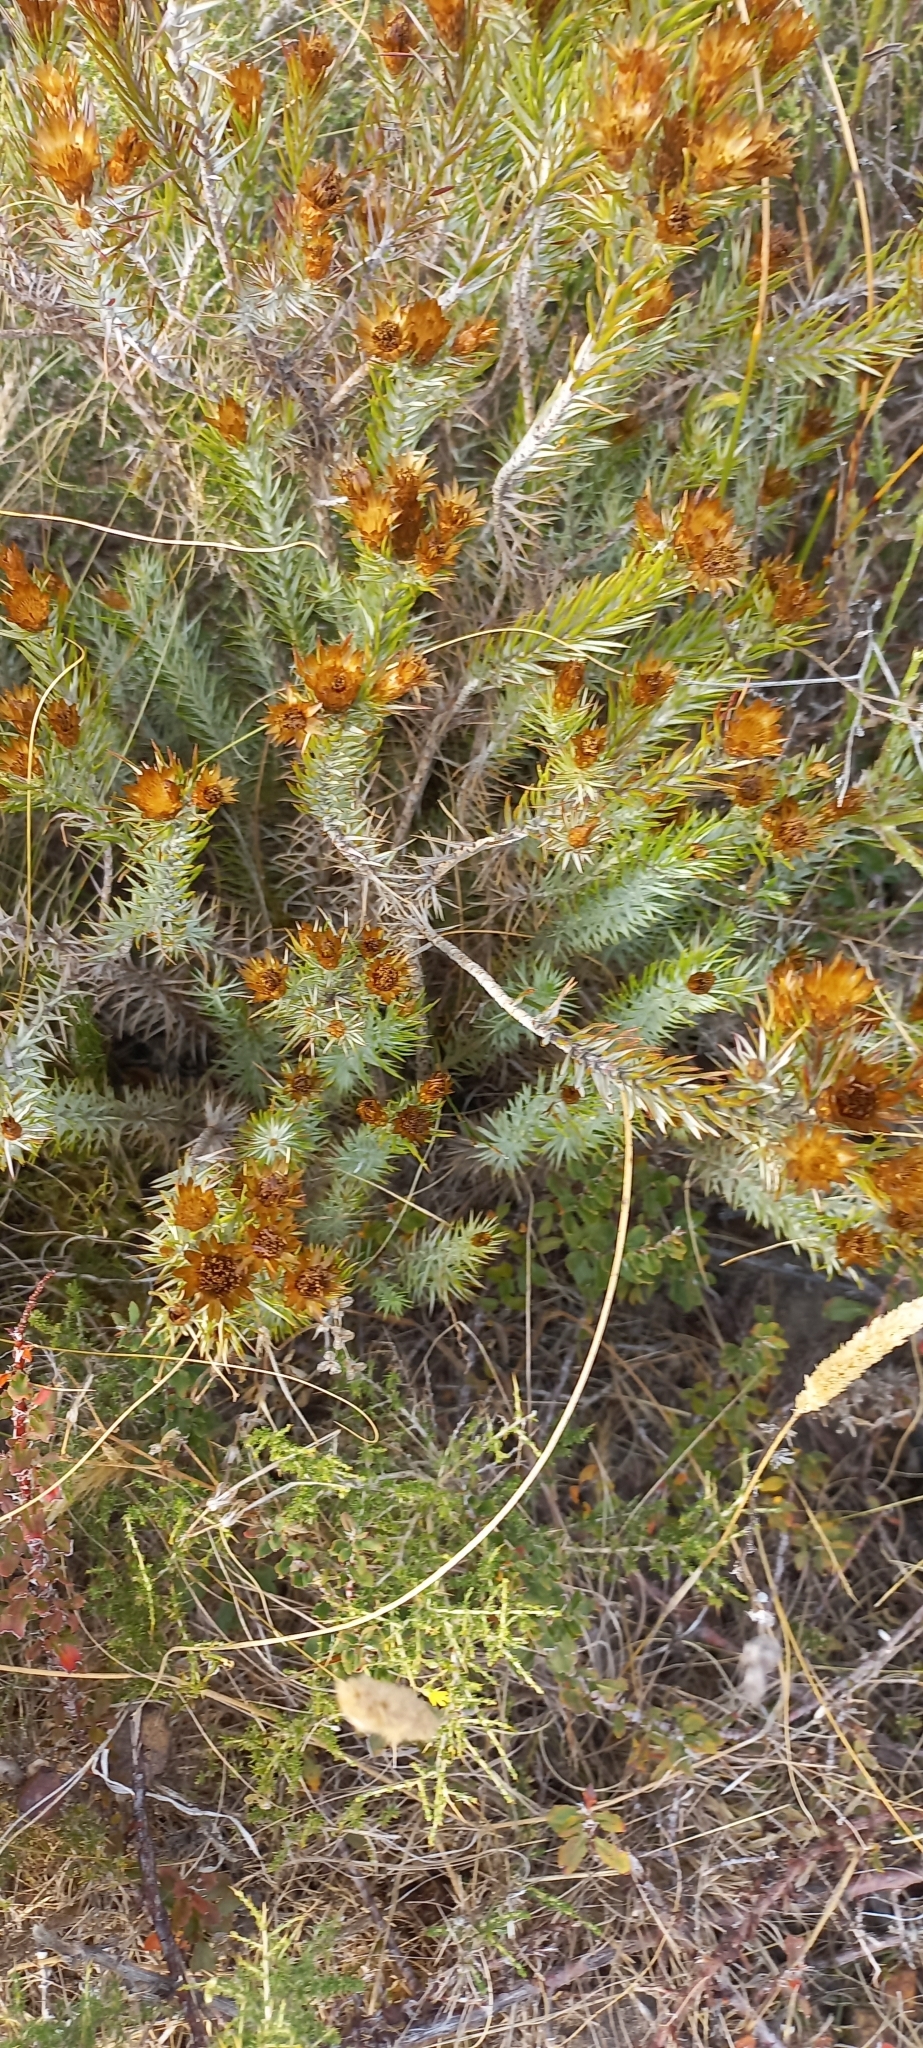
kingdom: Plantae
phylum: Tracheophyta
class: Magnoliopsida
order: Asterales
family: Asteraceae
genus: Oedera
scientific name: Oedera pungens
